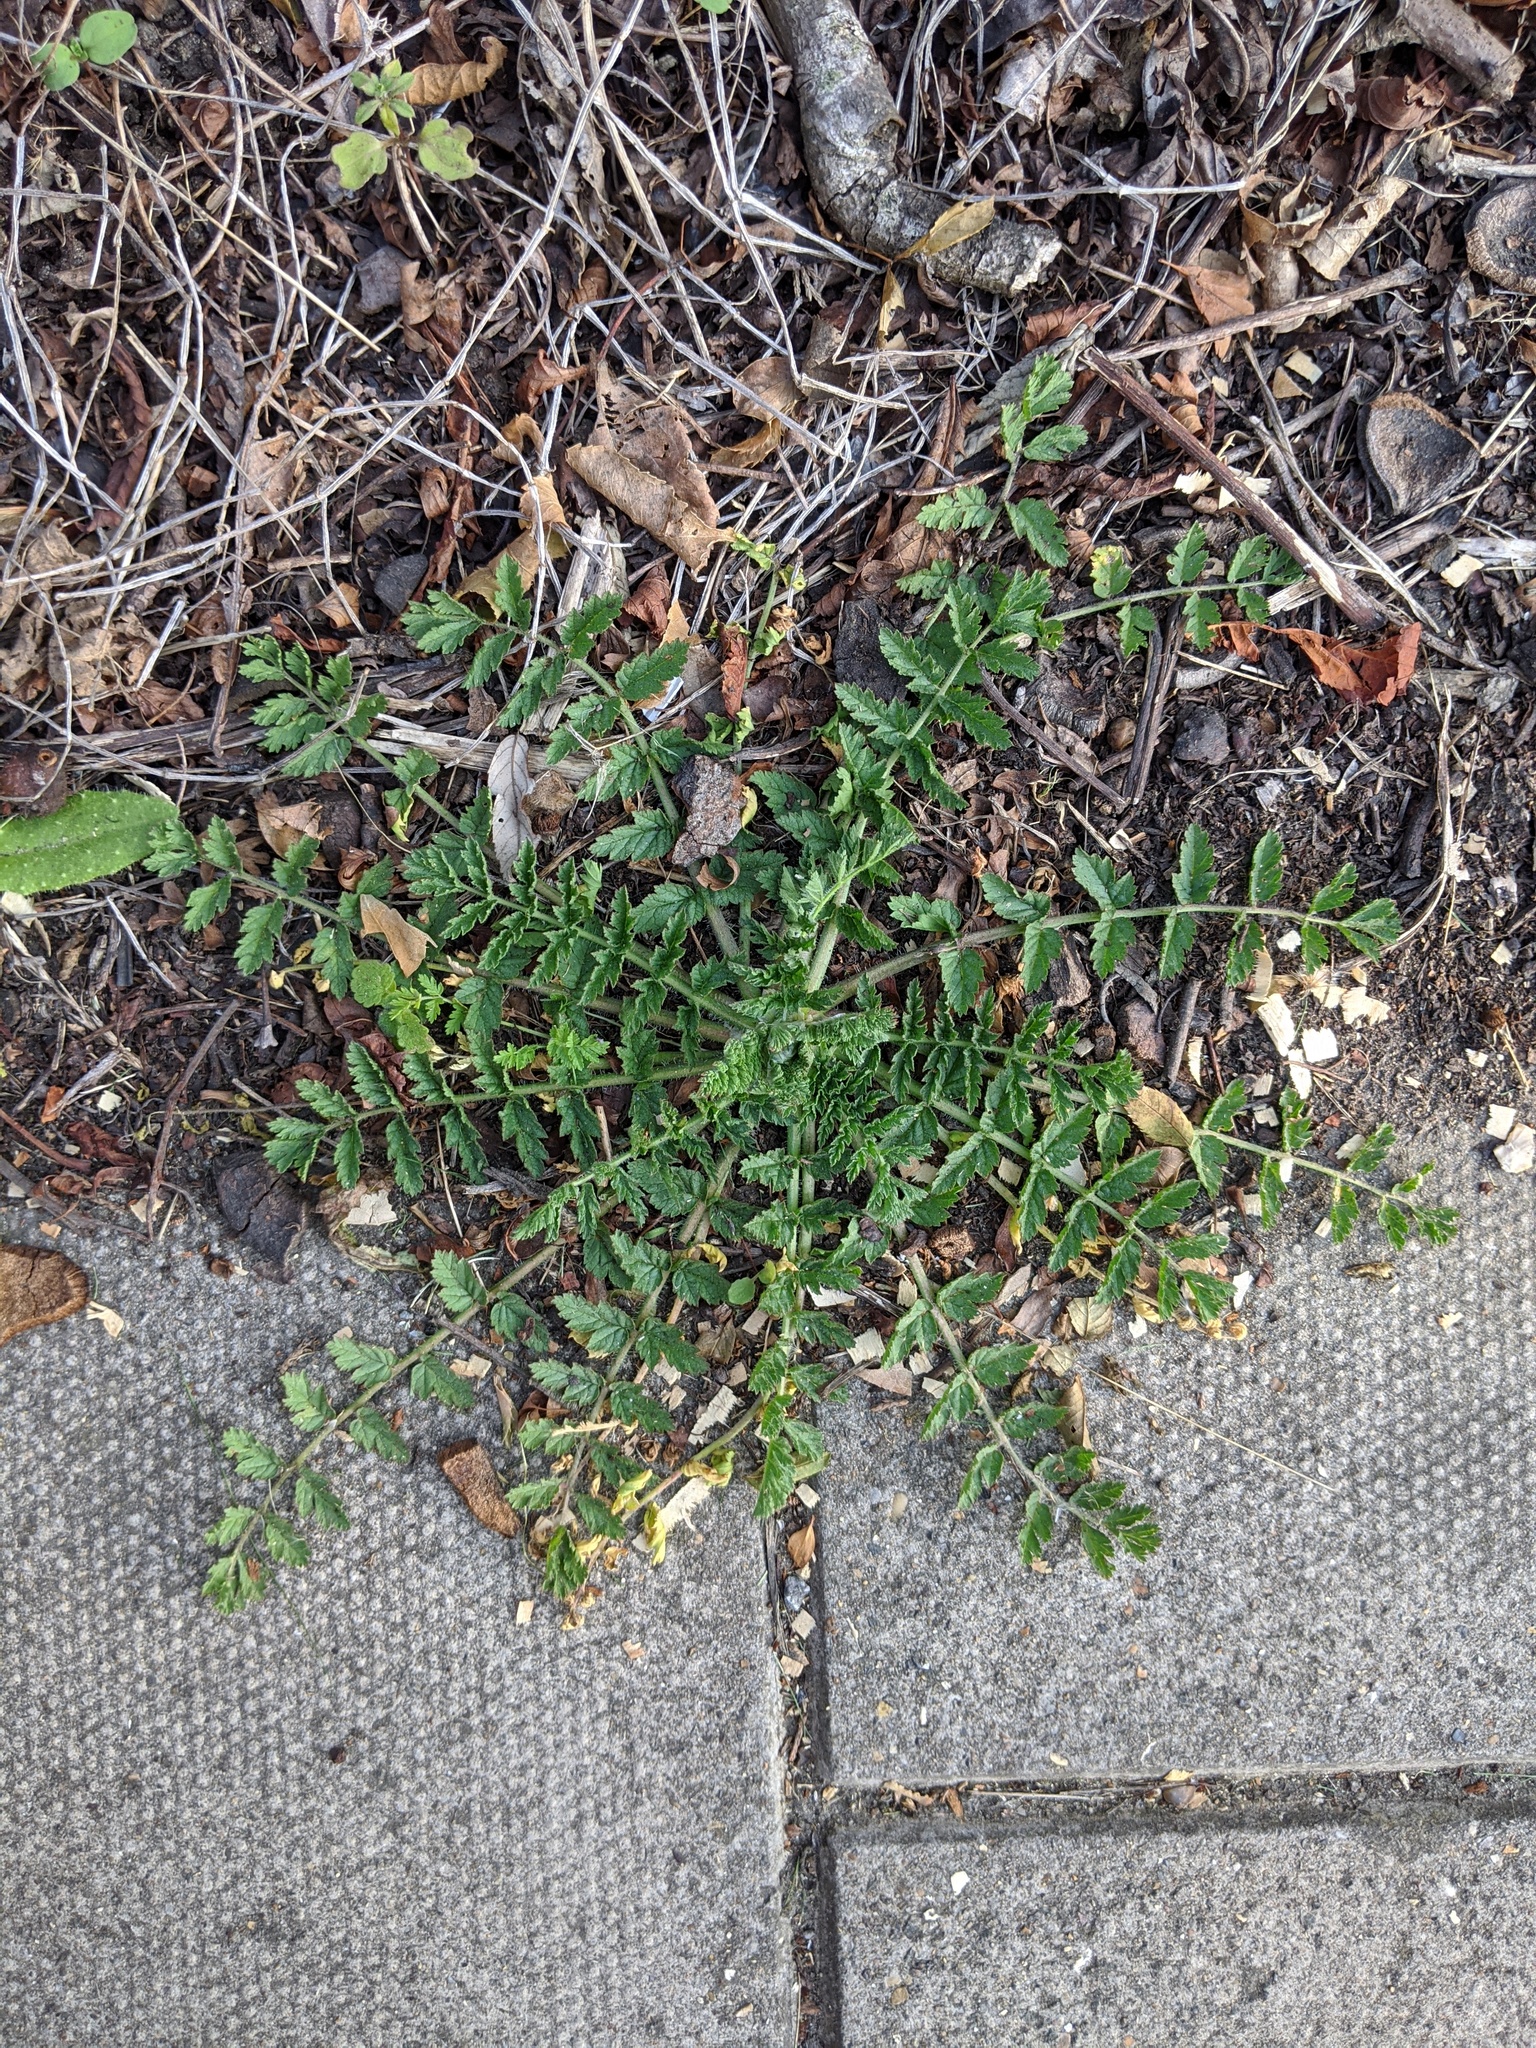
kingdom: Plantae
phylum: Tracheophyta
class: Magnoliopsida
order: Geraniales
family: Geraniaceae
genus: Erodium
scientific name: Erodium moschatum
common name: Musk stork's-bill
